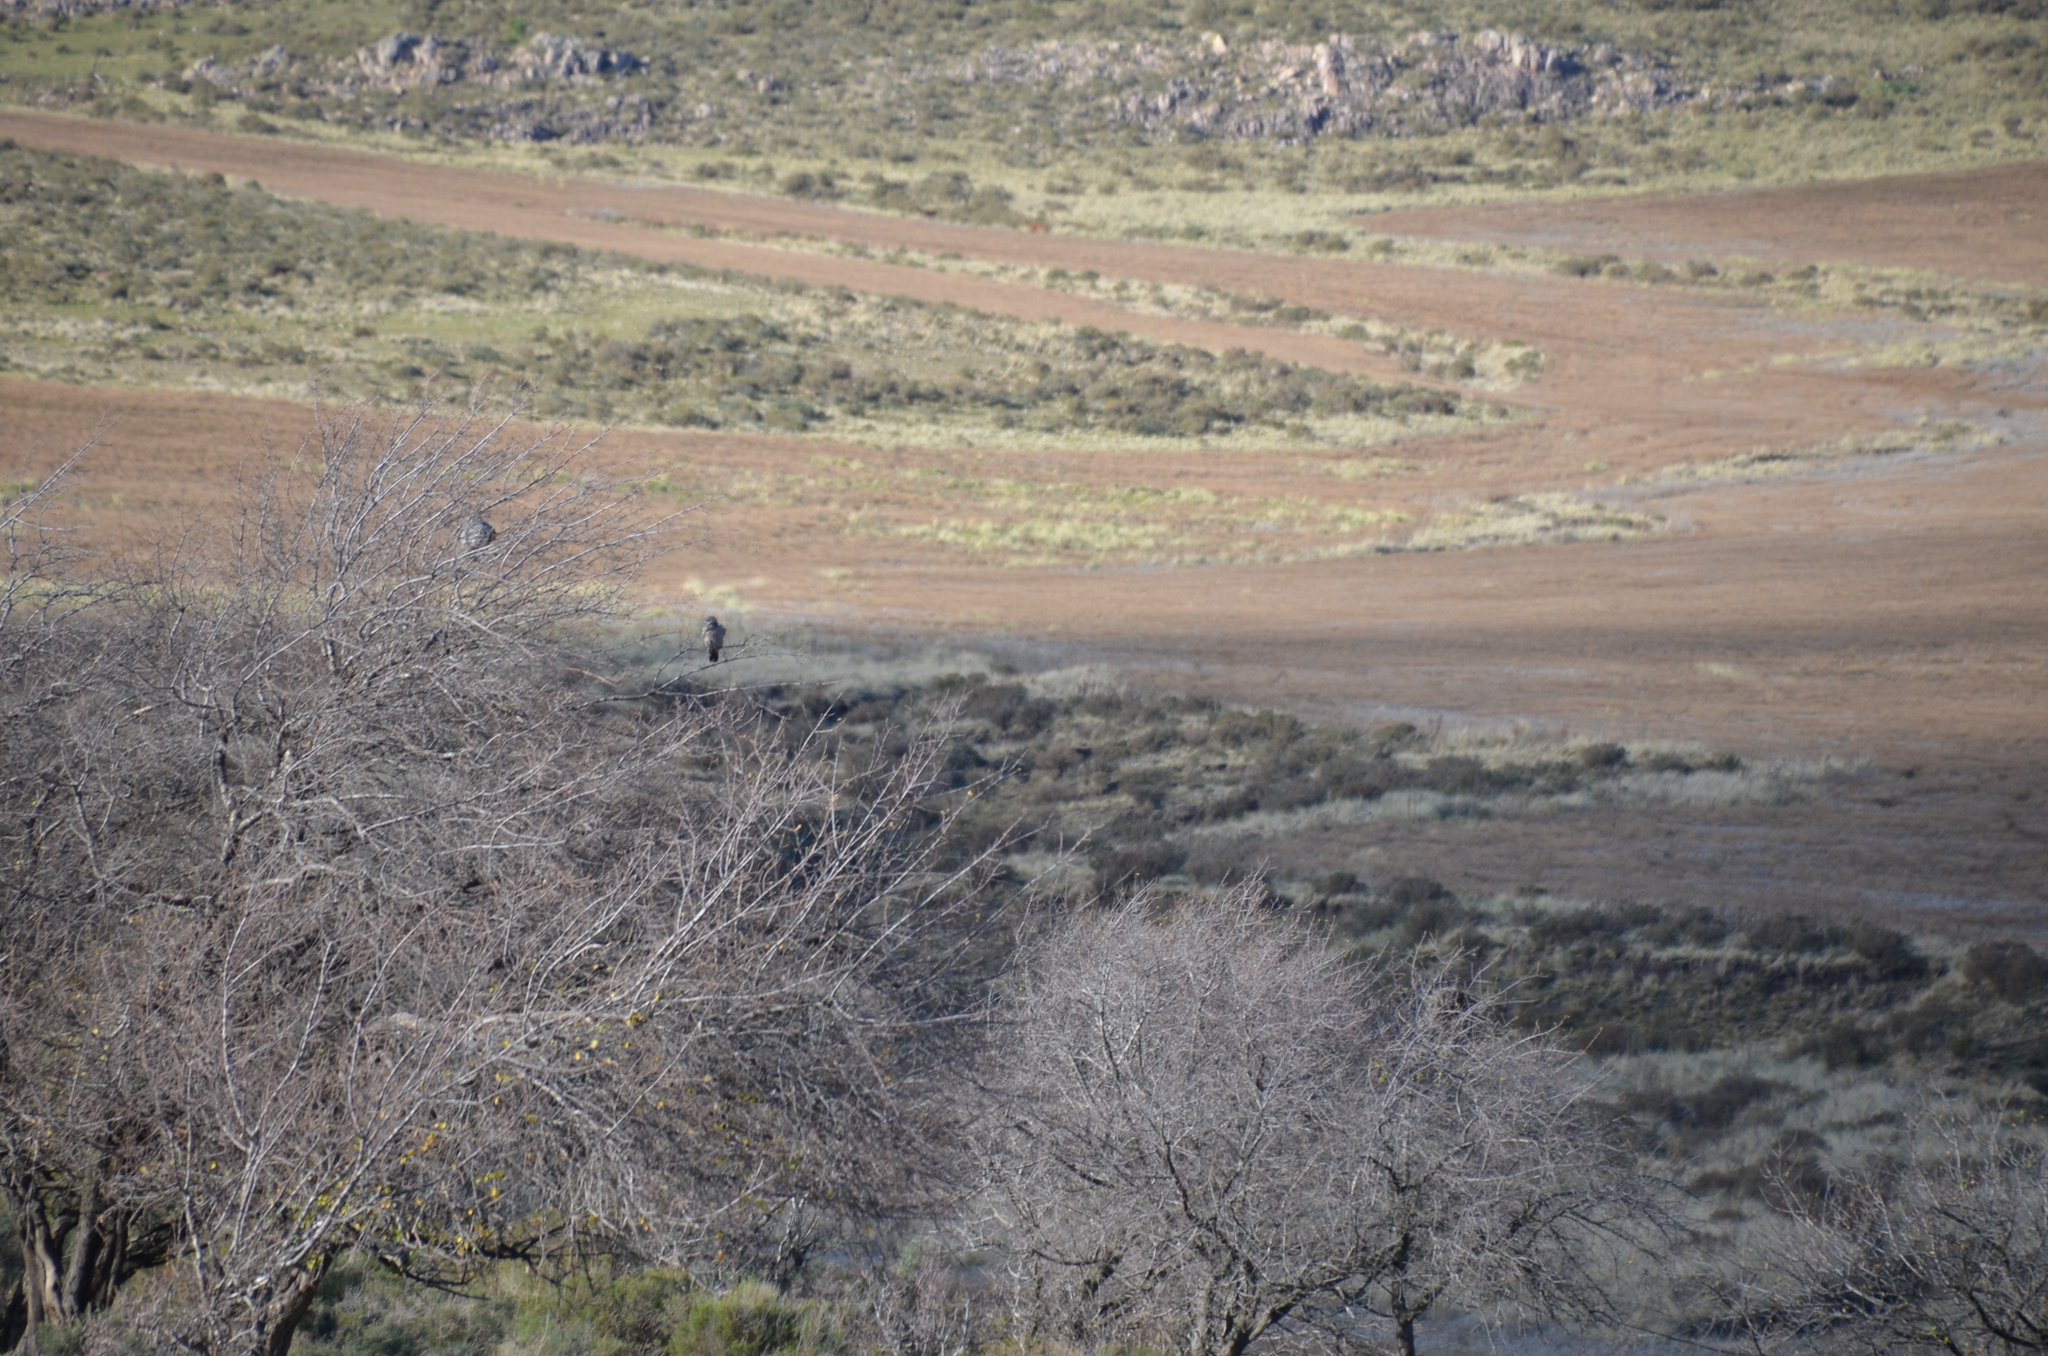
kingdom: Animalia
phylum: Chordata
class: Aves
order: Columbiformes
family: Columbidae
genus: Patagioenas
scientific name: Patagioenas maculosa
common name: Spot-winged pigeon
